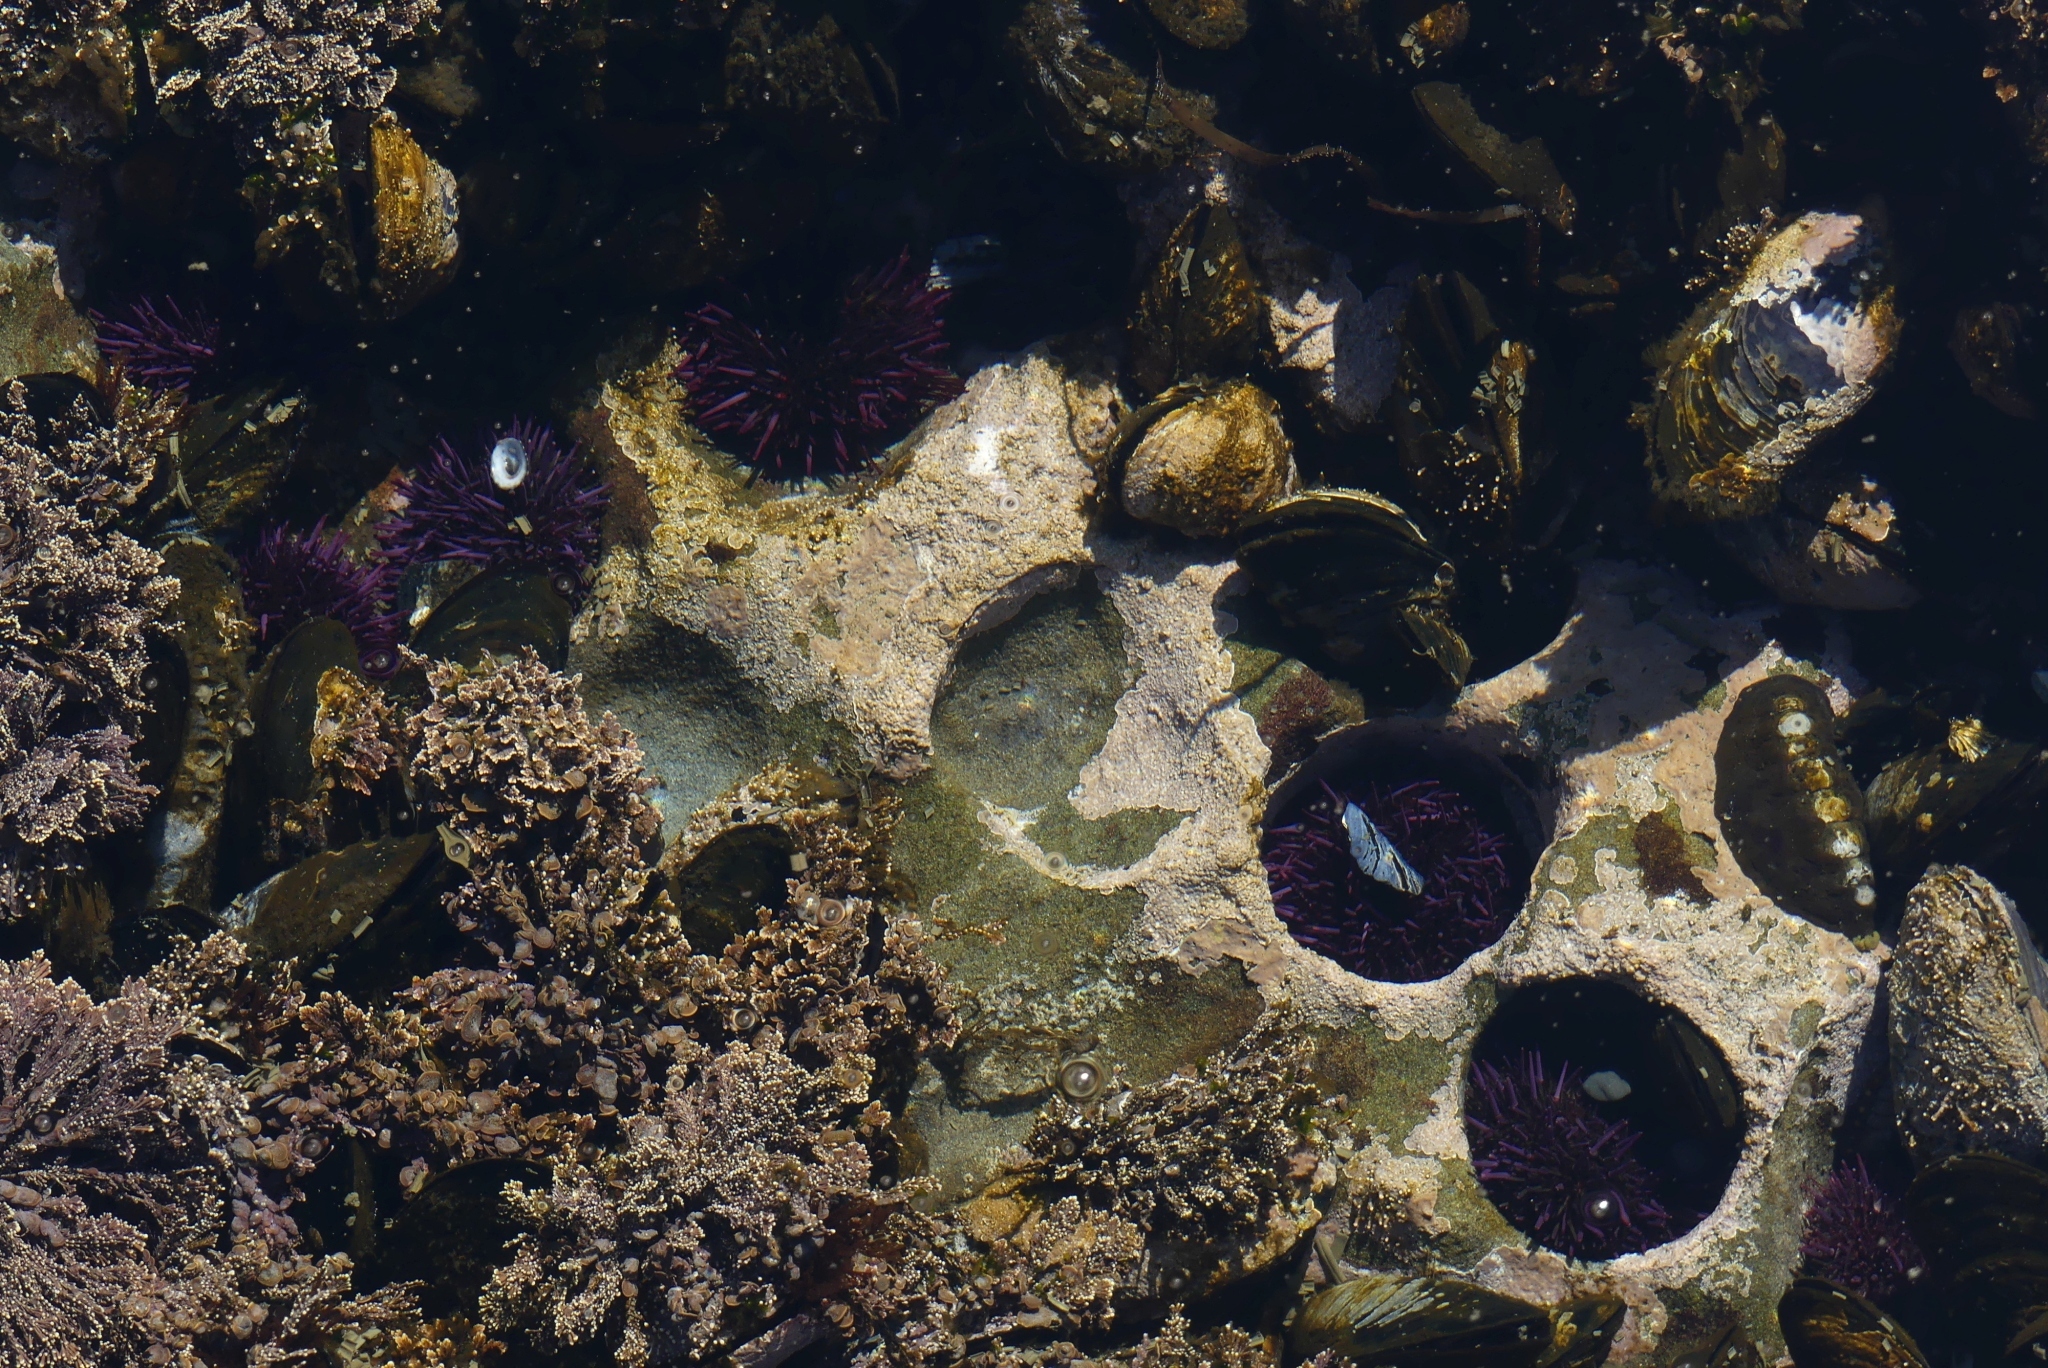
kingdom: Animalia
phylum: Echinodermata
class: Echinoidea
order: Camarodonta
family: Strongylocentrotidae
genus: Strongylocentrotus
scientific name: Strongylocentrotus purpuratus
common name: Purple sea urchin
